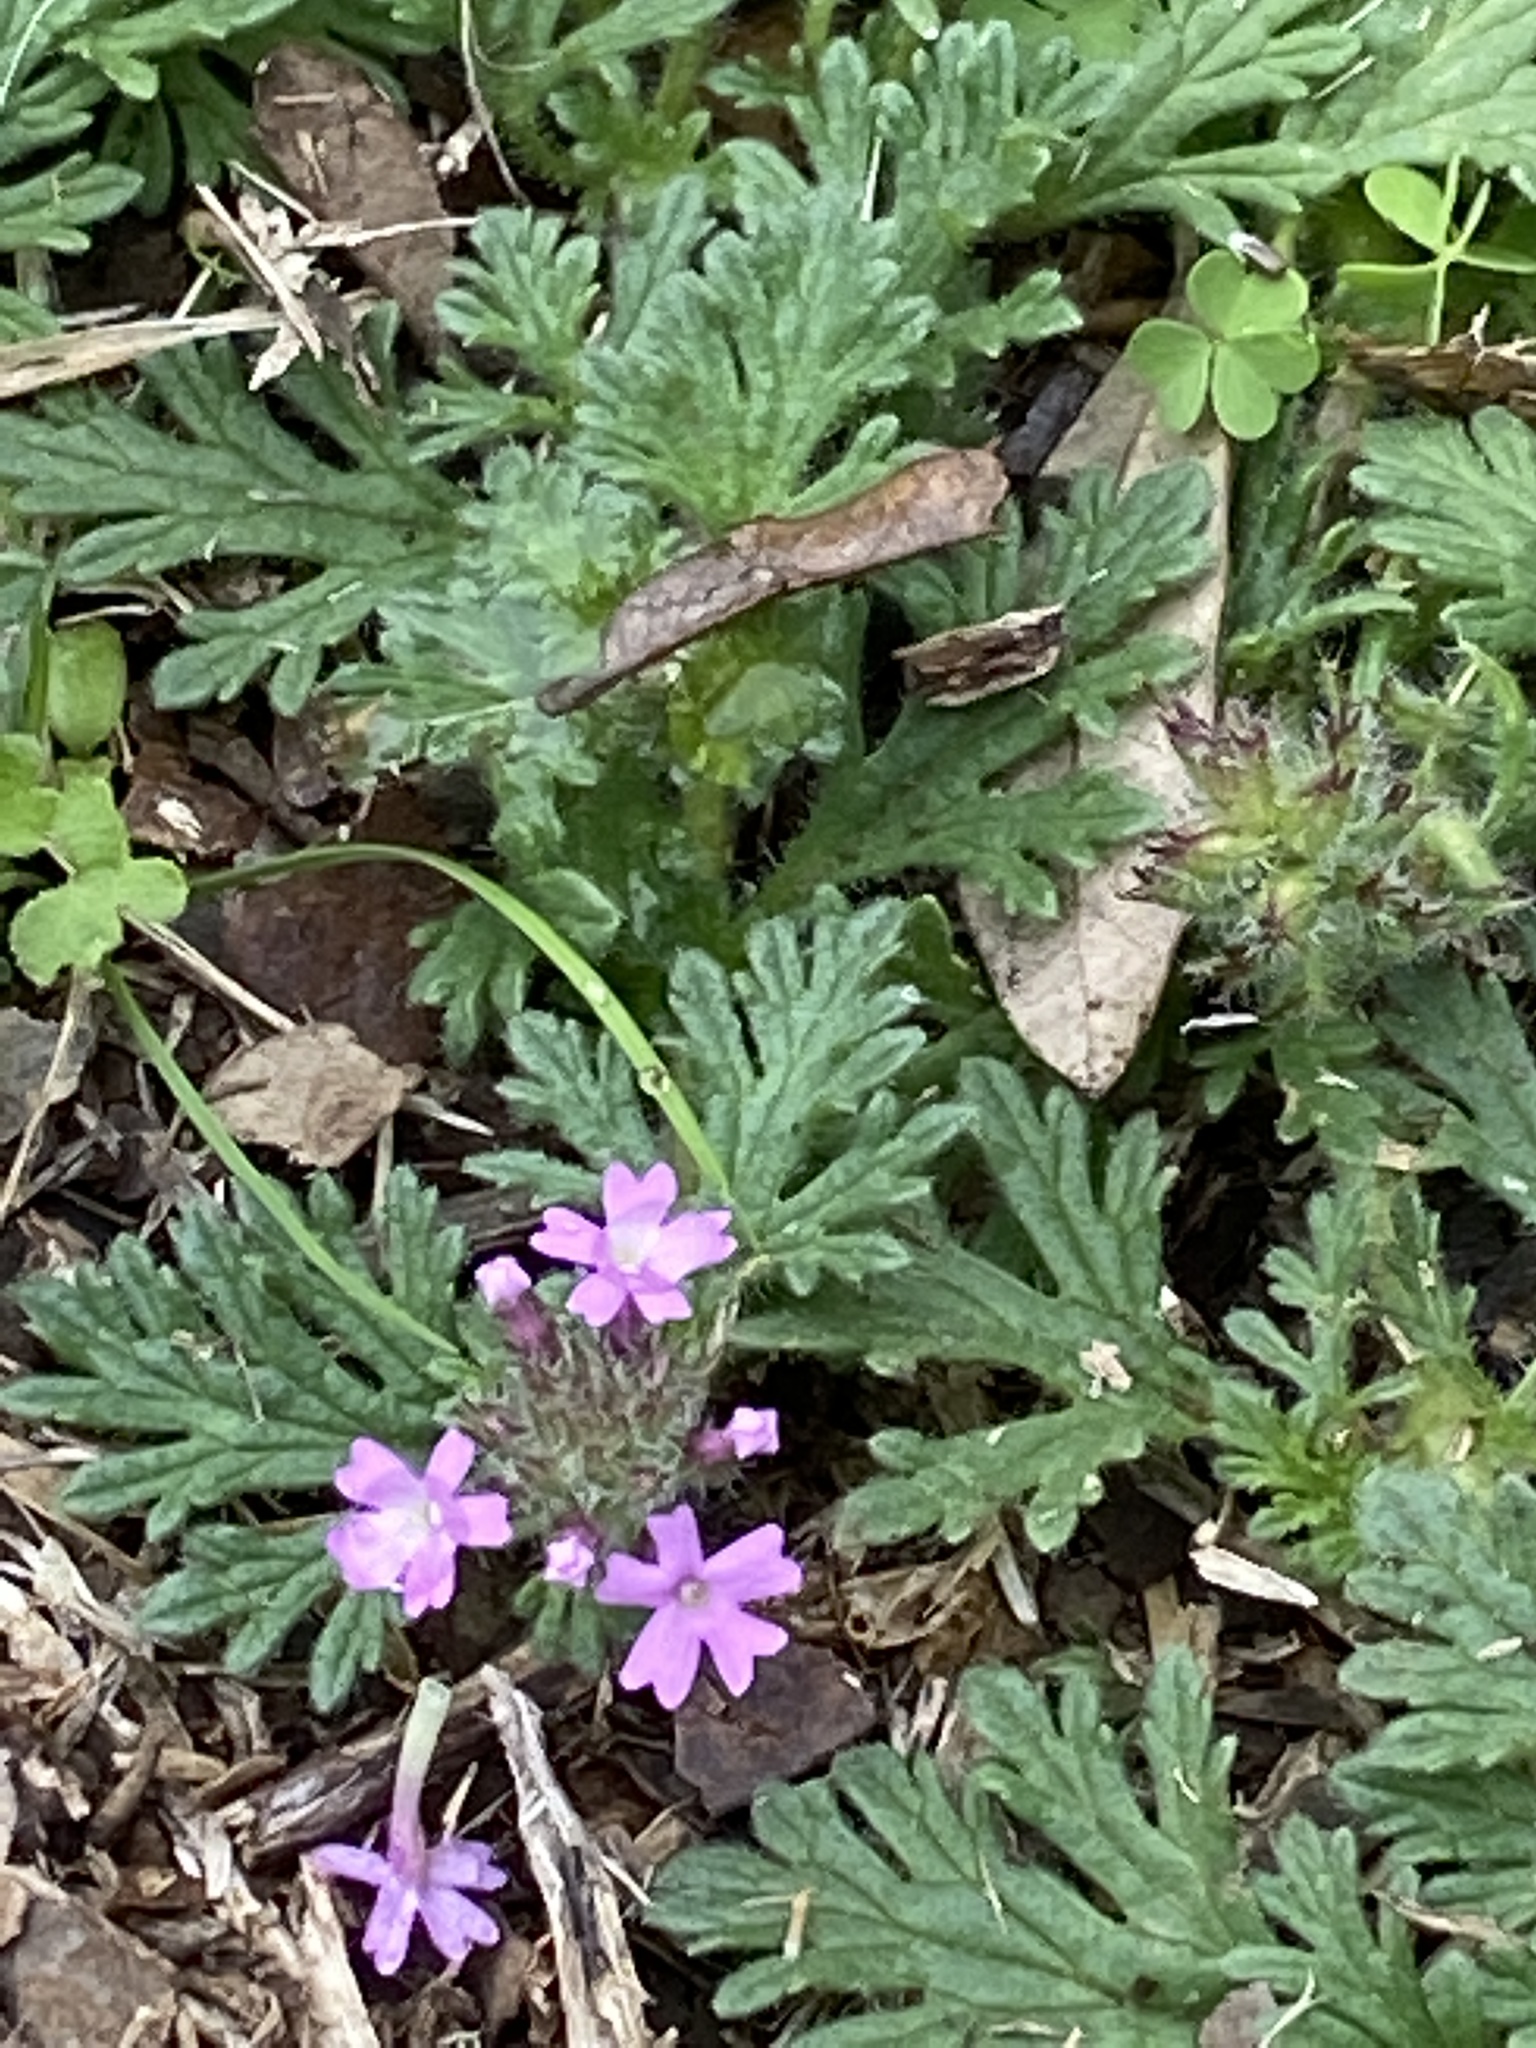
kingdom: Plantae
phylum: Tracheophyta
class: Magnoliopsida
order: Lamiales
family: Verbenaceae
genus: Verbena
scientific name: Verbena pumila
